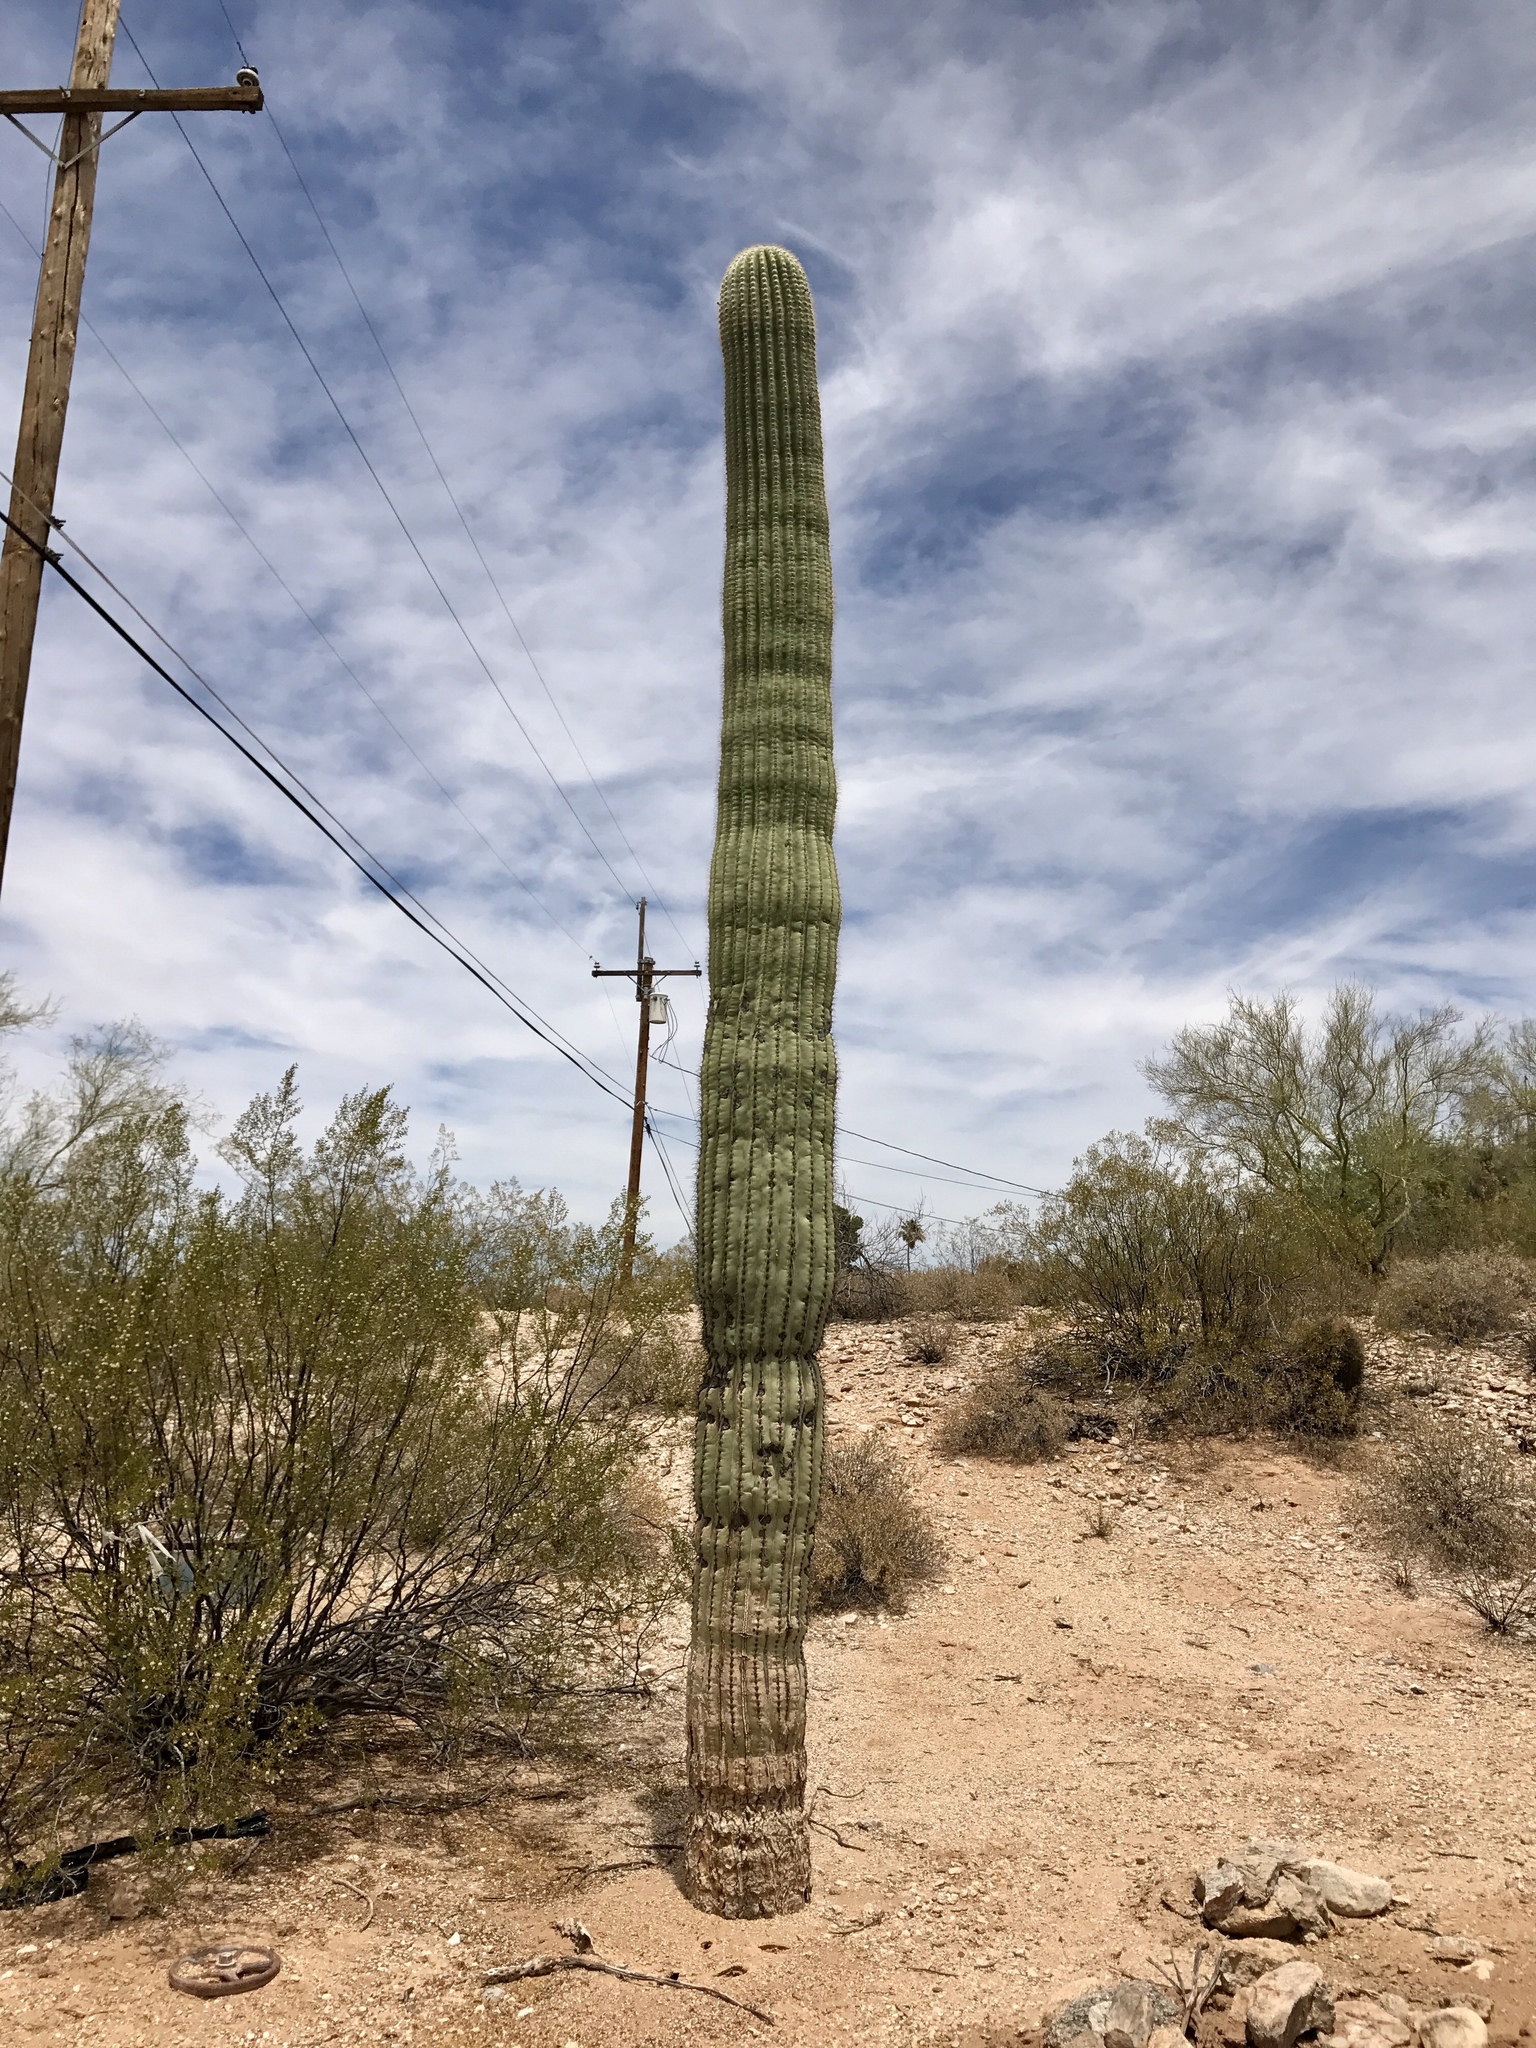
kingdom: Plantae
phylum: Tracheophyta
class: Magnoliopsida
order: Caryophyllales
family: Cactaceae
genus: Carnegiea
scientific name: Carnegiea gigantea
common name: Saguaro
